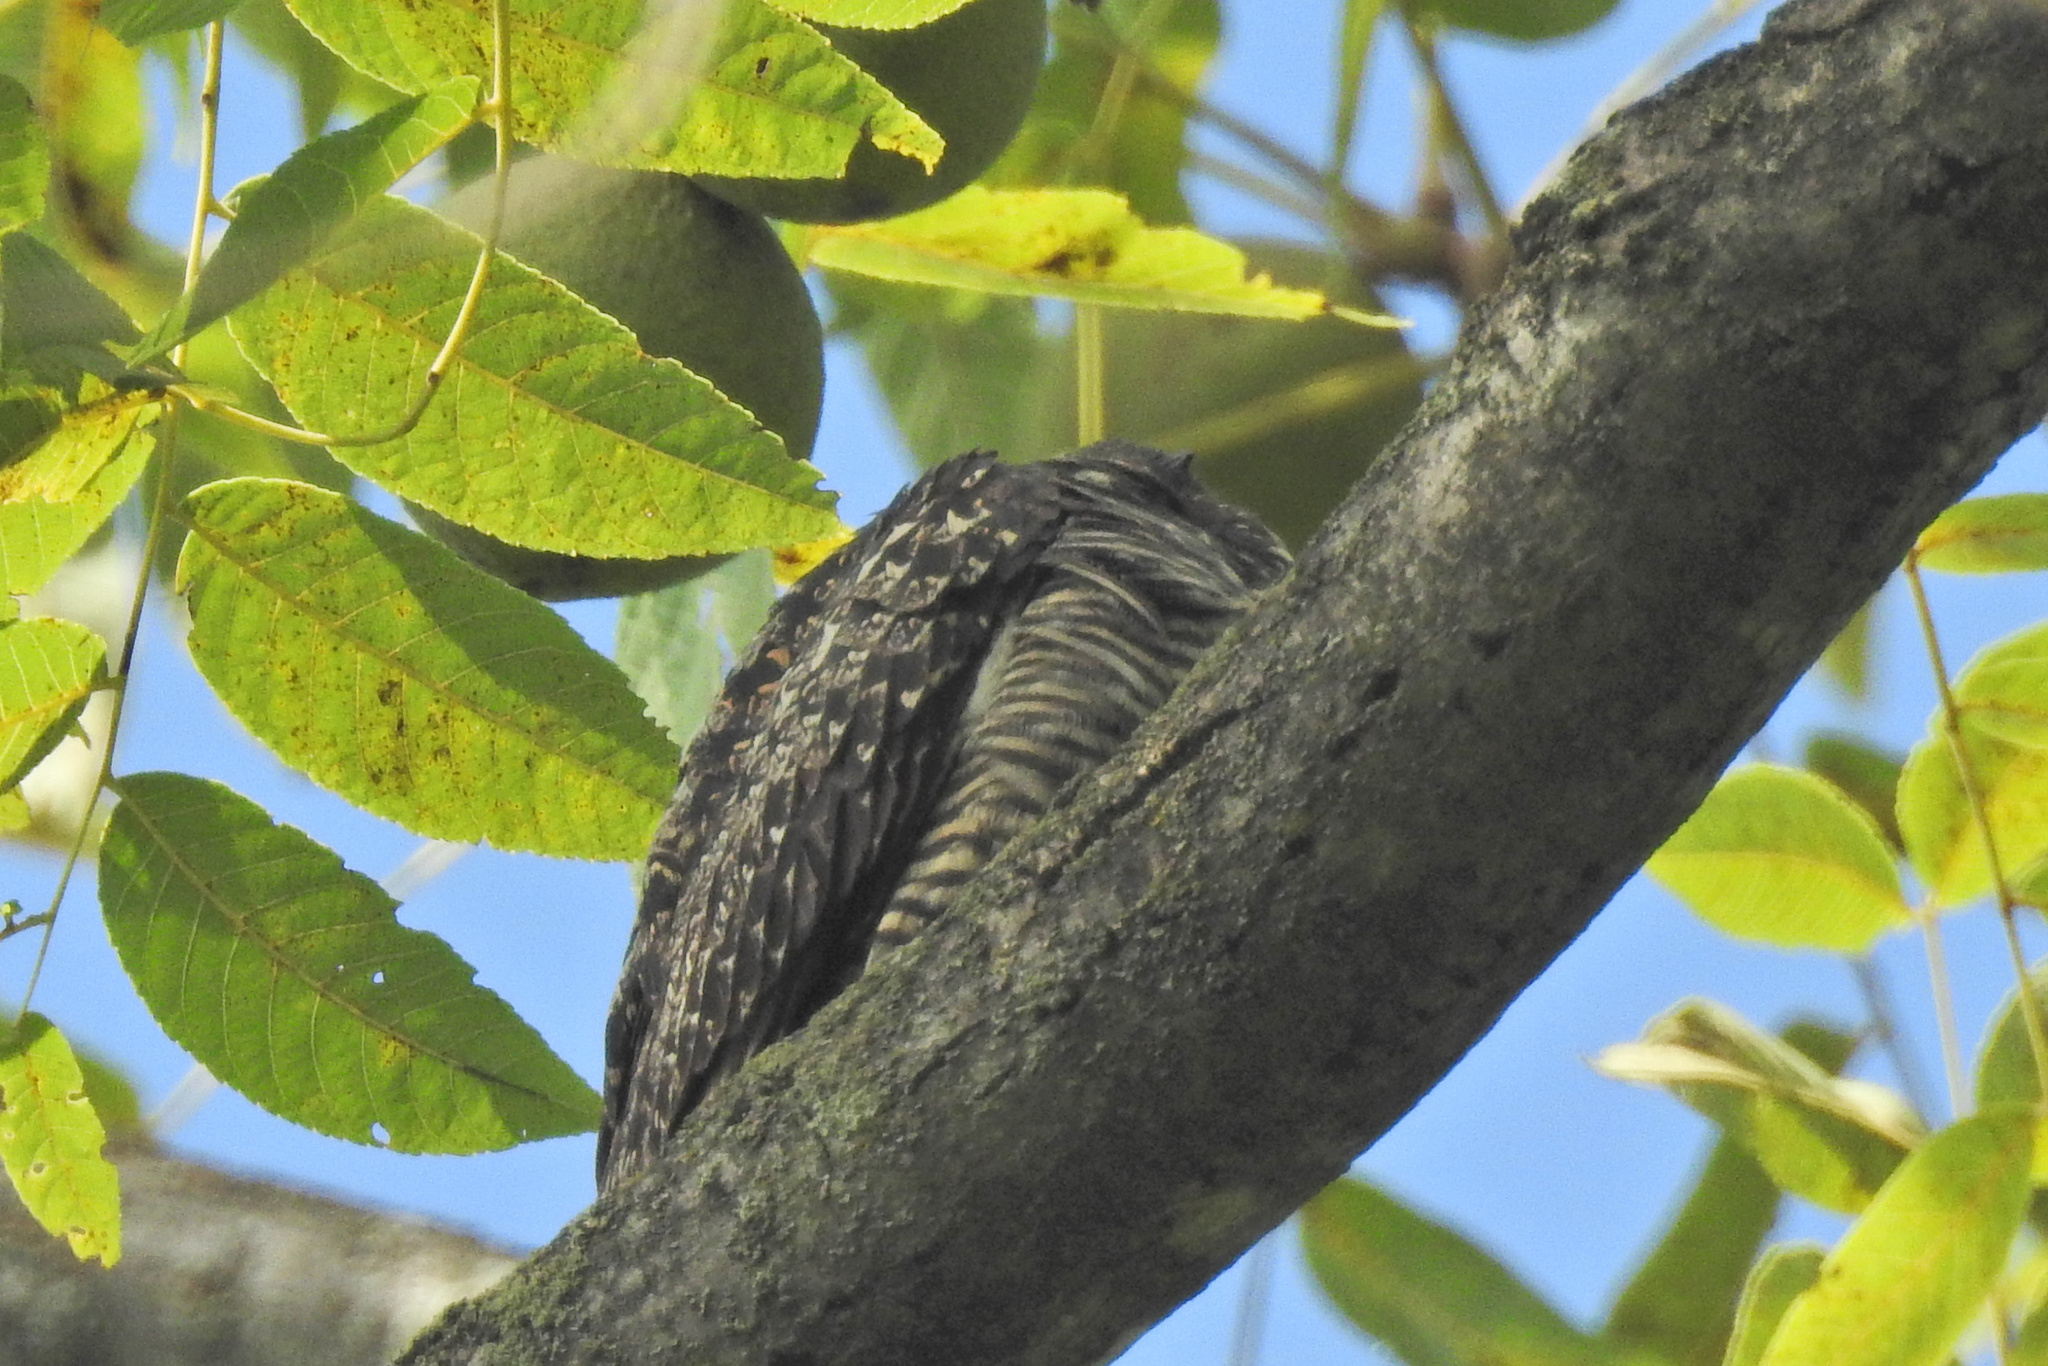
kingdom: Animalia
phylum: Chordata
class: Aves
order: Caprimulgiformes
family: Caprimulgidae
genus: Chordeiles
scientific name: Chordeiles minor
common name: Common nighthawk
